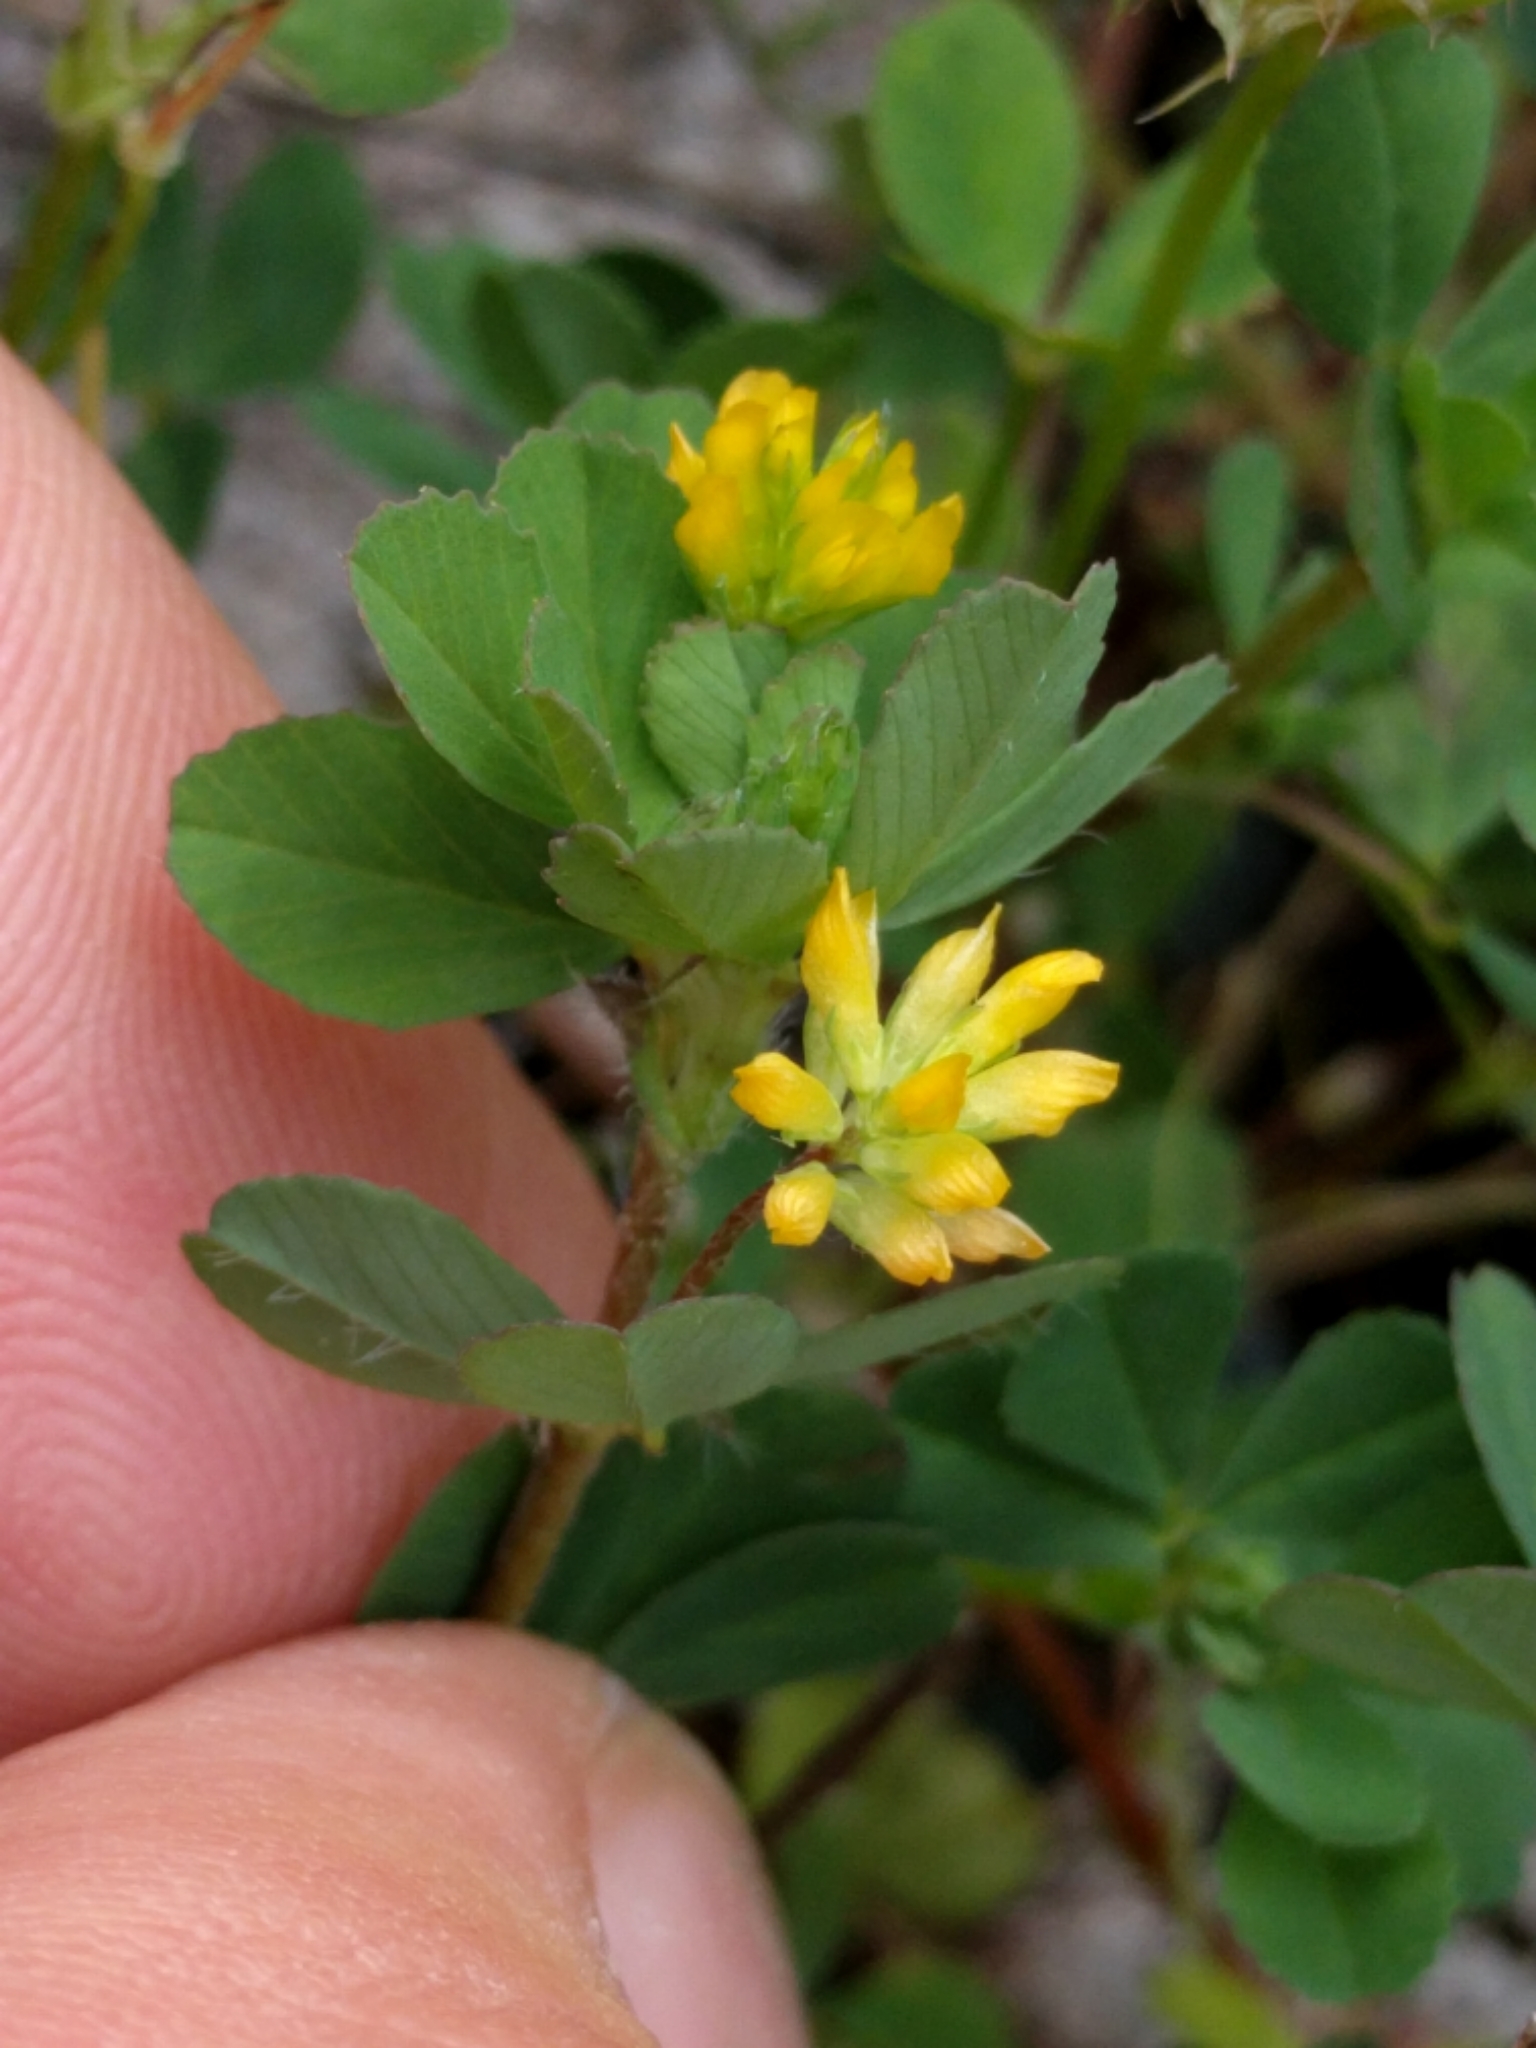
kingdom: Plantae
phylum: Tracheophyta
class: Magnoliopsida
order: Fabales
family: Fabaceae
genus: Trifolium
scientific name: Trifolium dubium
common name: Suckling clover
